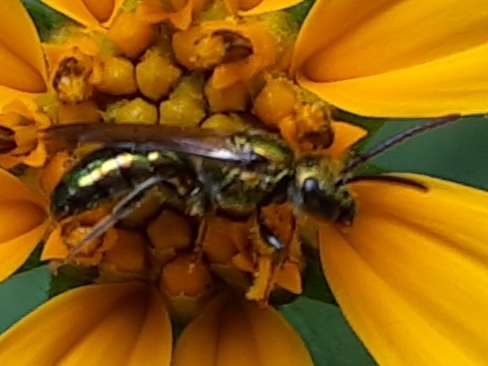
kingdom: Animalia
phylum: Arthropoda
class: Insecta
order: Hymenoptera
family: Halictidae
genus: Augochlora
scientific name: Augochlora pura
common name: Pure green sweat bee
